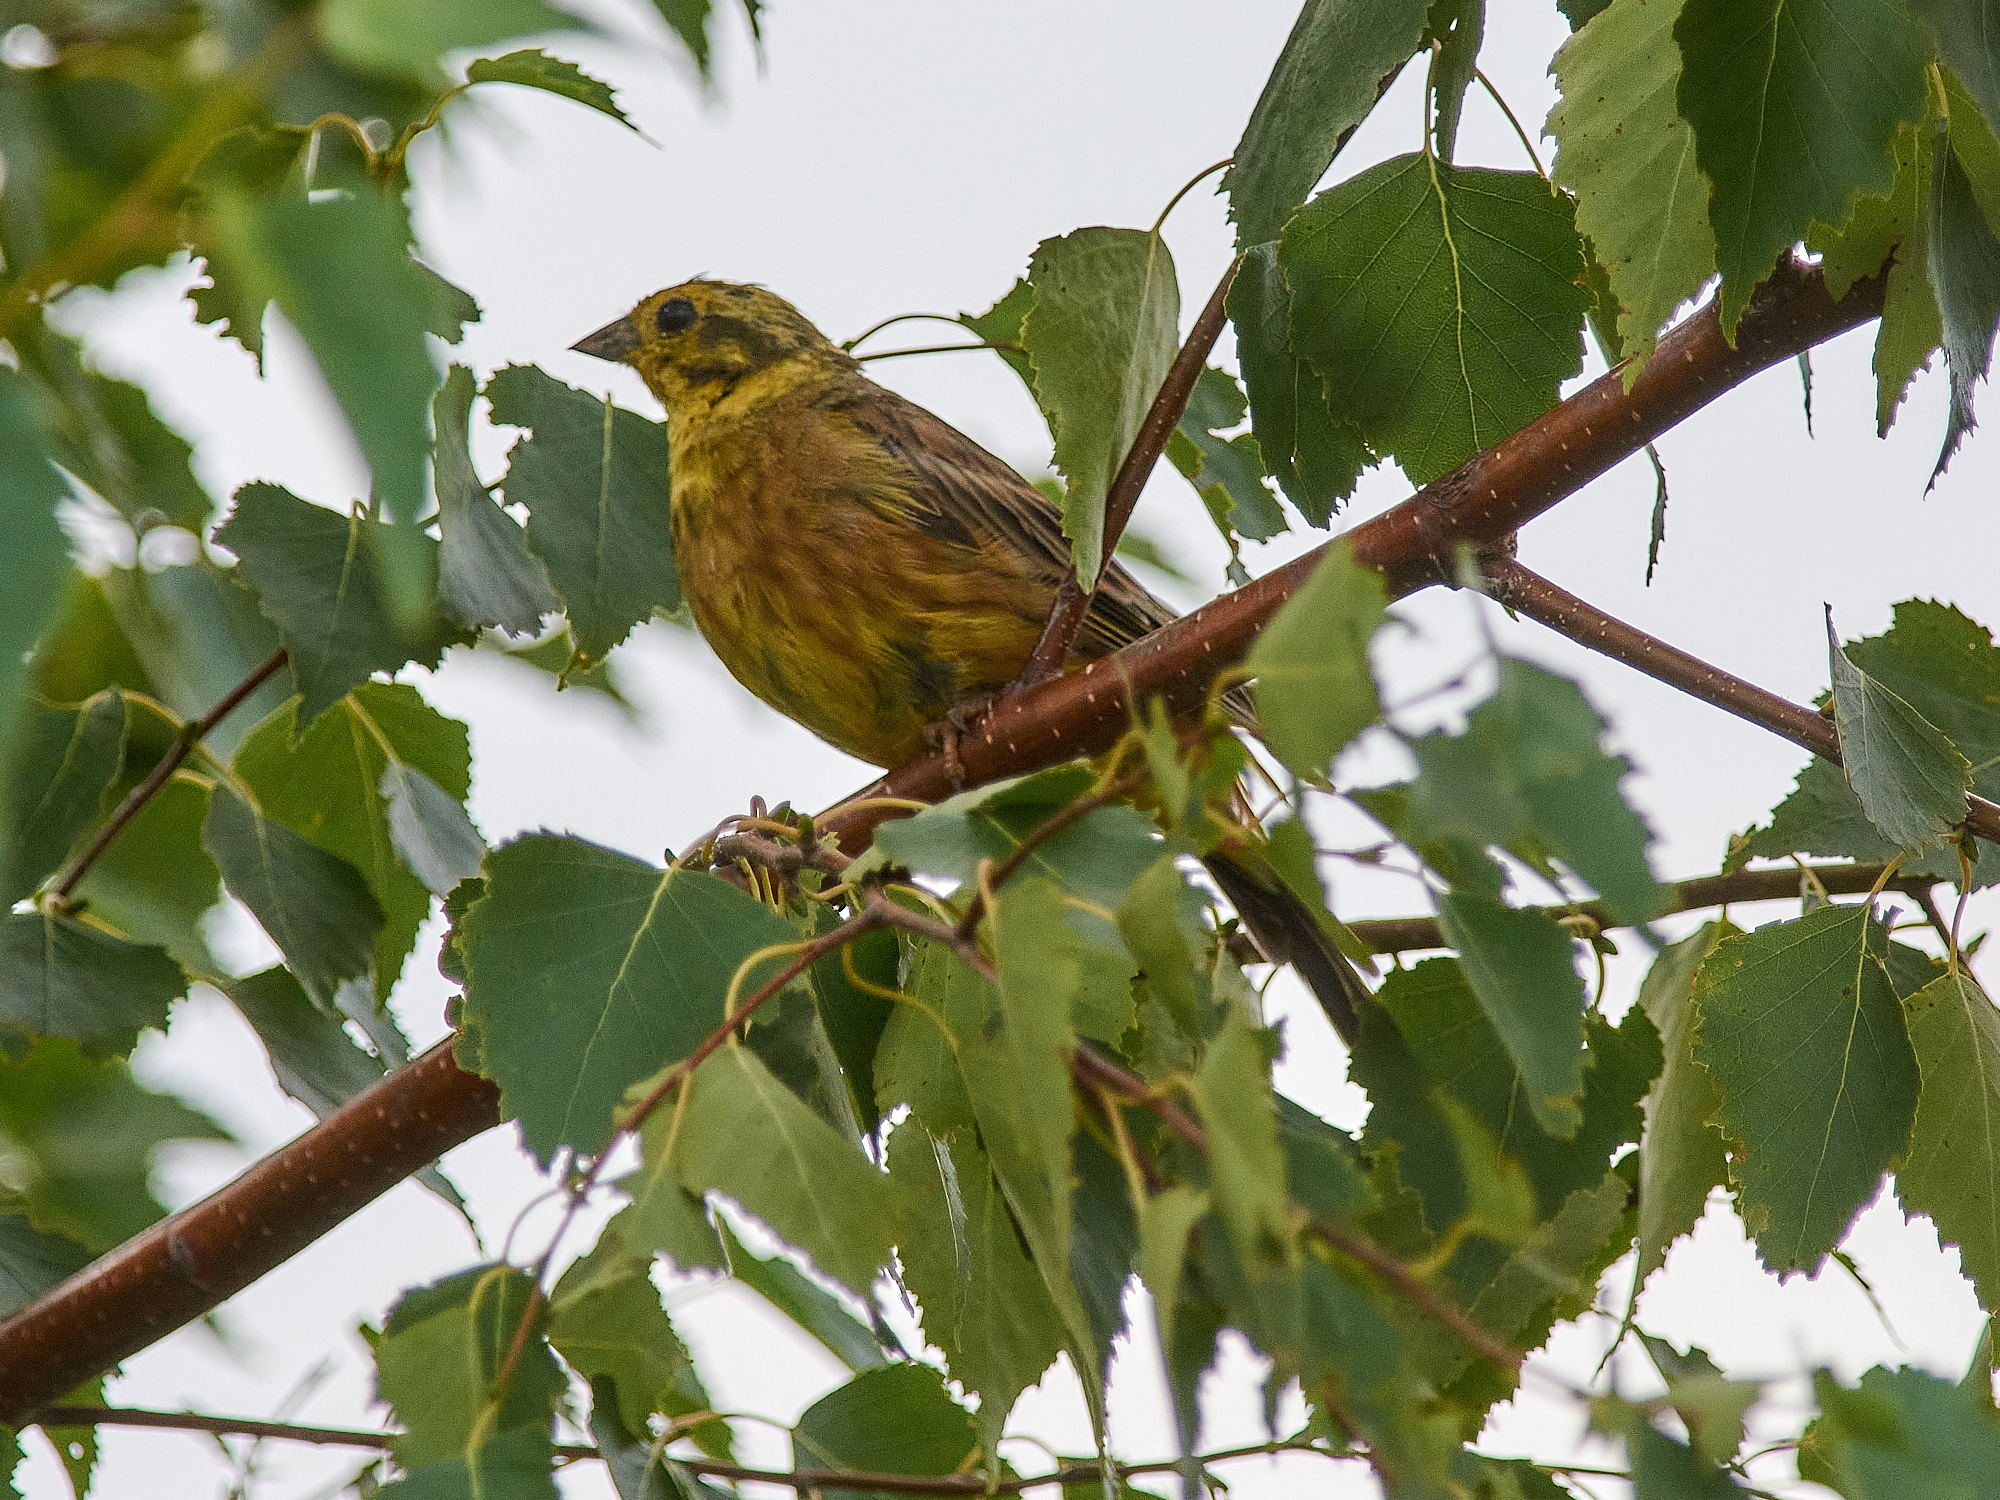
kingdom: Animalia
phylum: Chordata
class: Aves
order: Passeriformes
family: Emberizidae
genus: Emberiza
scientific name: Emberiza citrinella
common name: Yellowhammer
